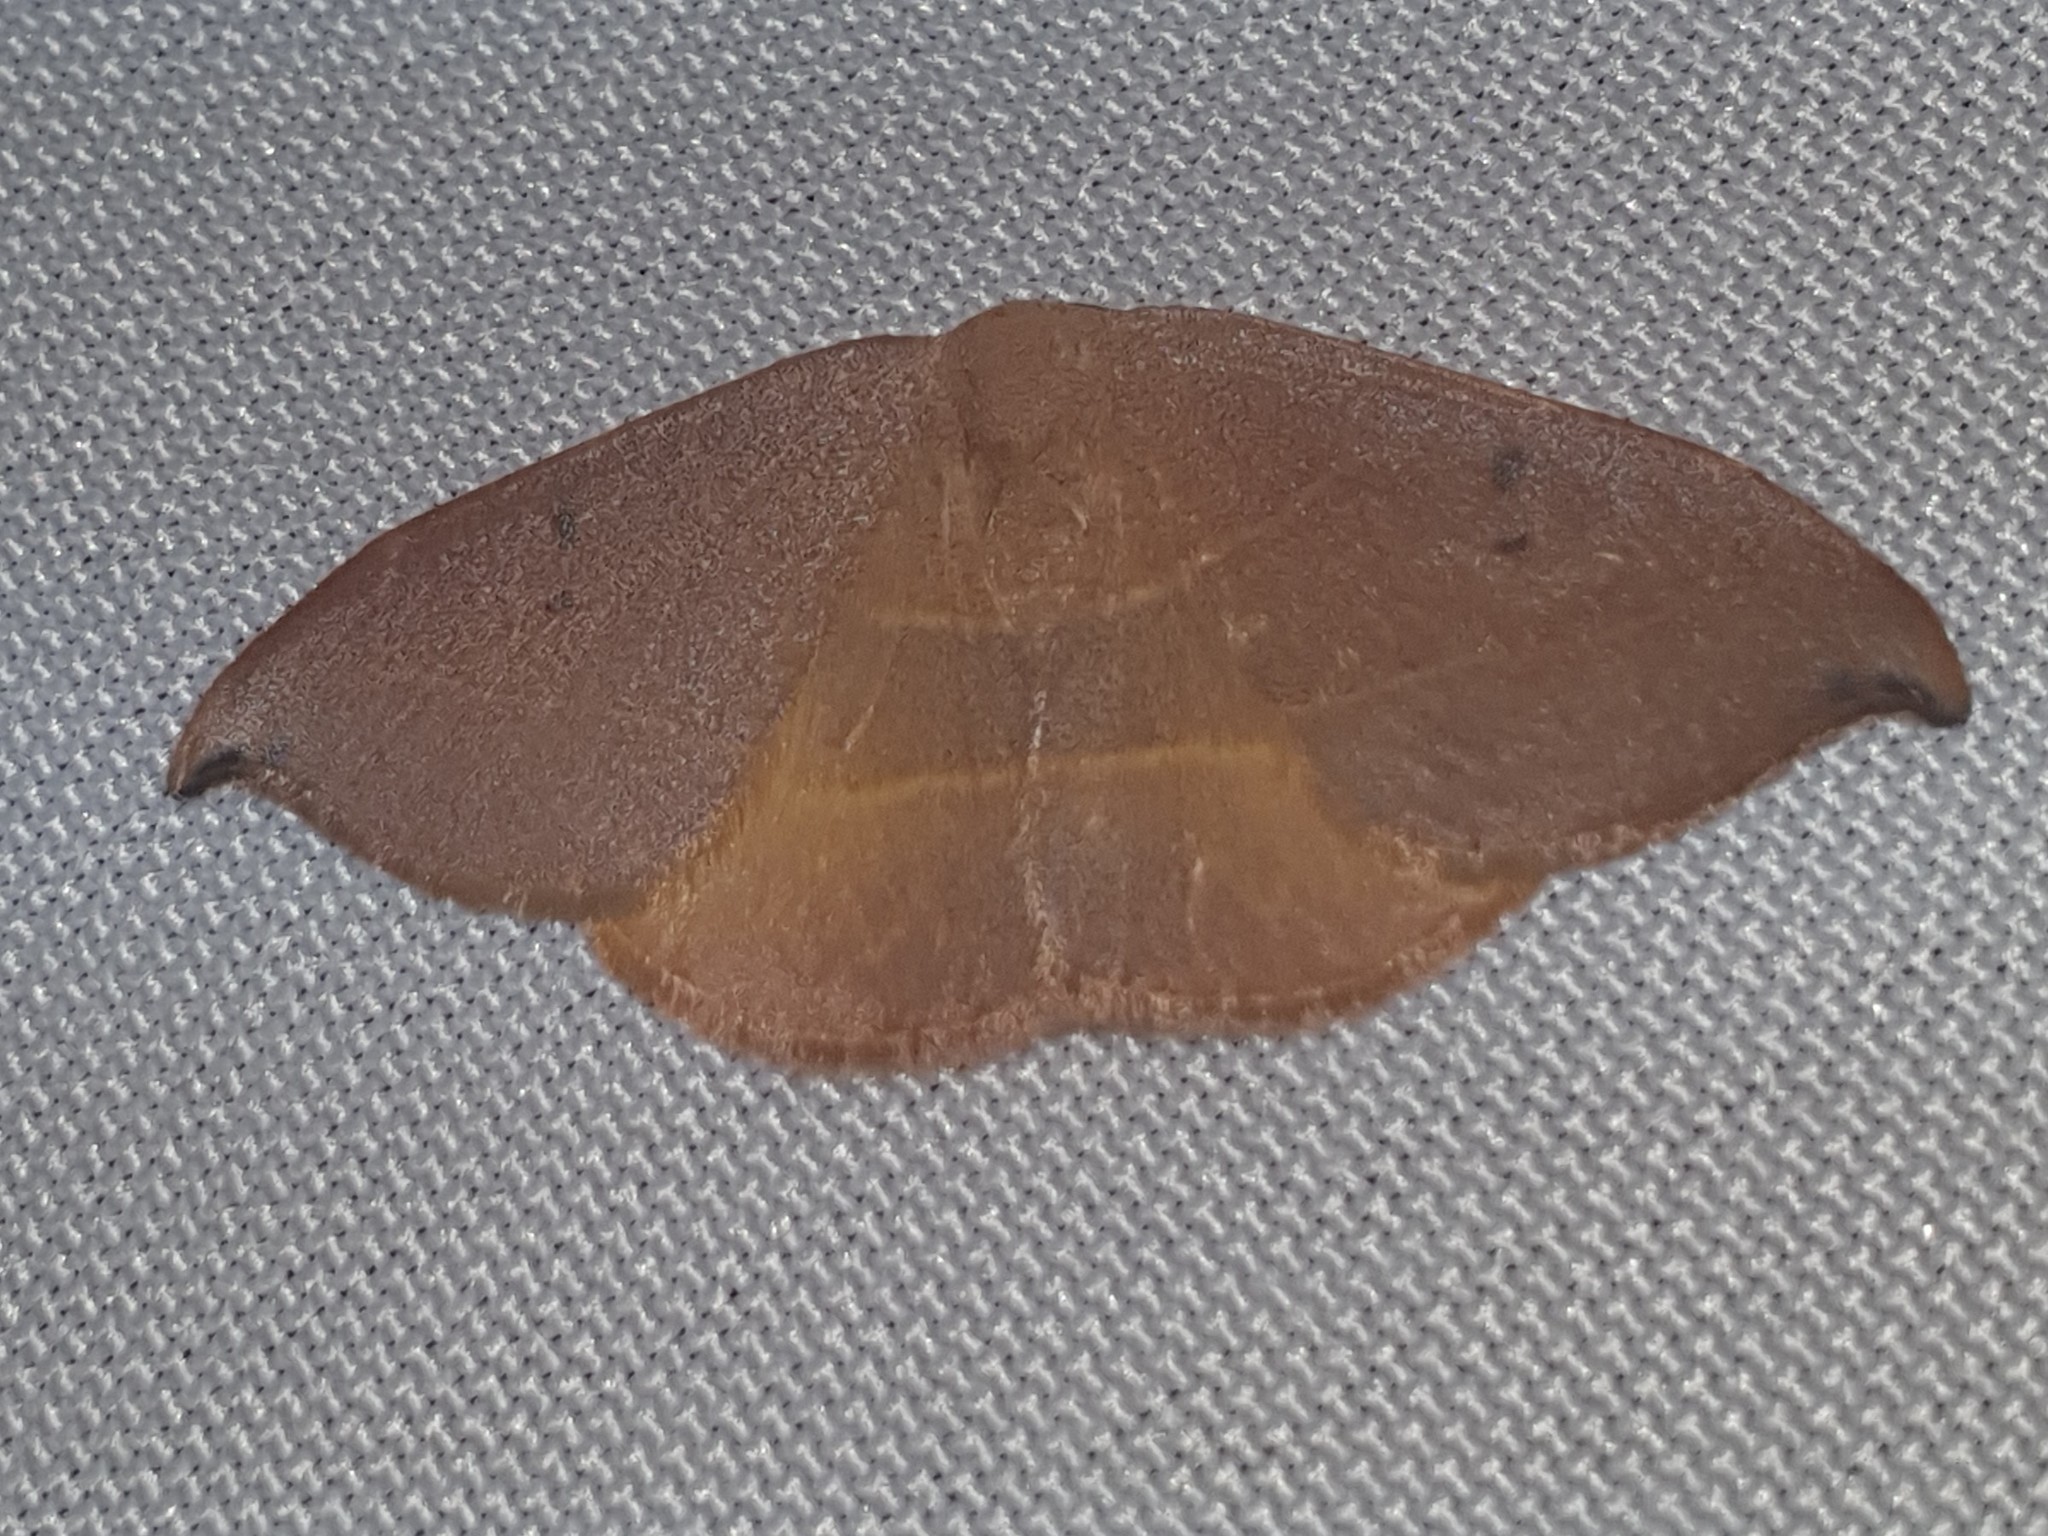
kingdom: Animalia
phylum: Arthropoda
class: Insecta
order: Lepidoptera
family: Drepanidae
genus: Watsonalla
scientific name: Watsonalla uncinula
